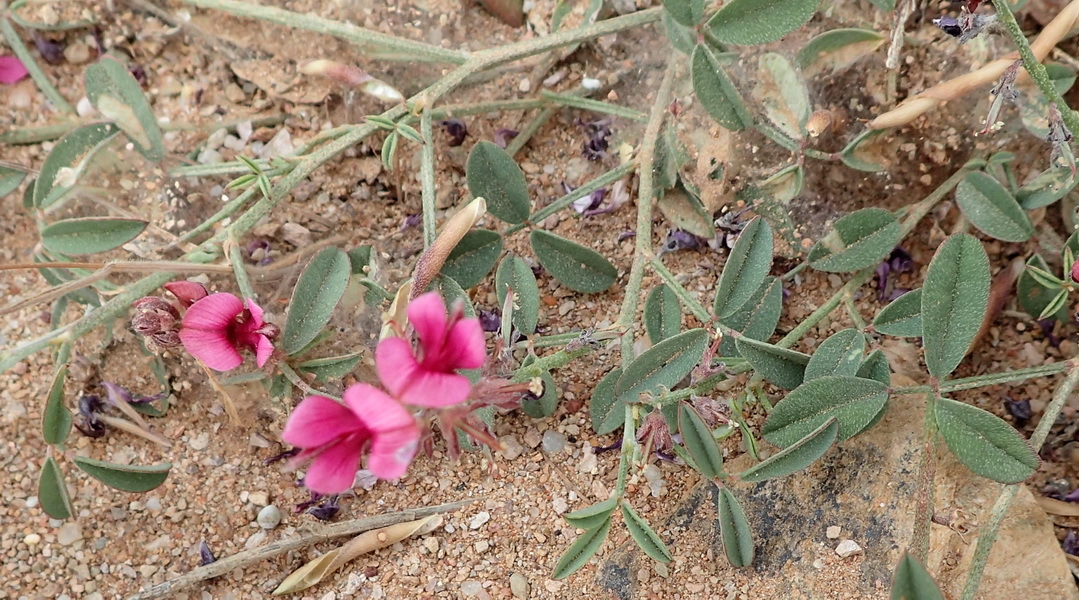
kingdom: Plantae
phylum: Tracheophyta
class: Magnoliopsida
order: Fabales
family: Fabaceae
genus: Indigofera
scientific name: Indigofera intermedia
